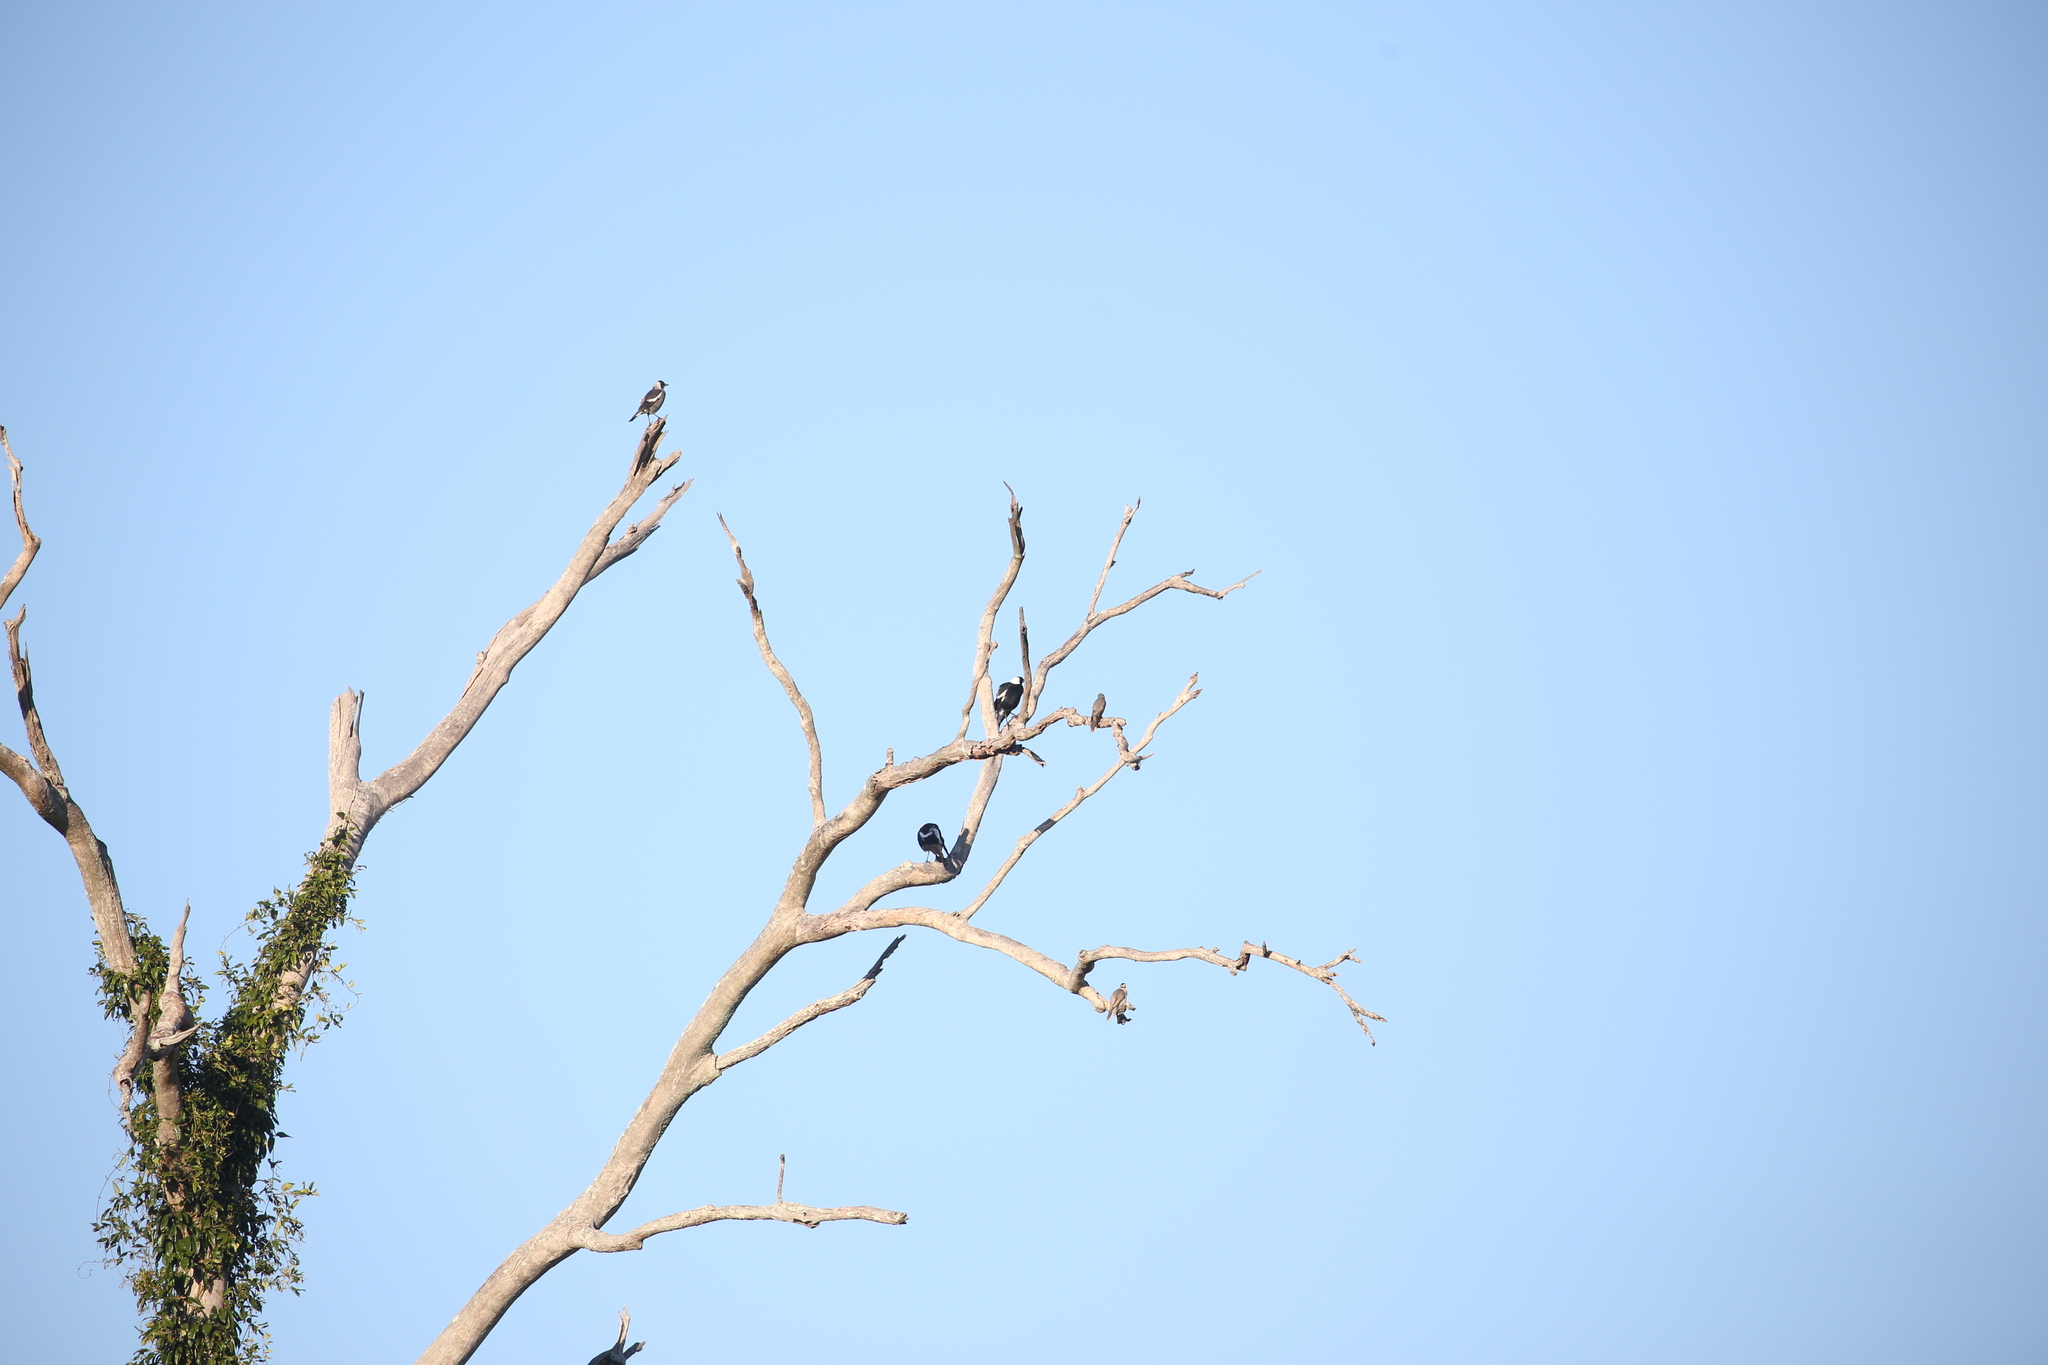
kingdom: Animalia
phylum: Chordata
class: Aves
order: Passeriformes
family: Cracticidae
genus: Gymnorhina
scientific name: Gymnorhina tibicen
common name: Australian magpie
